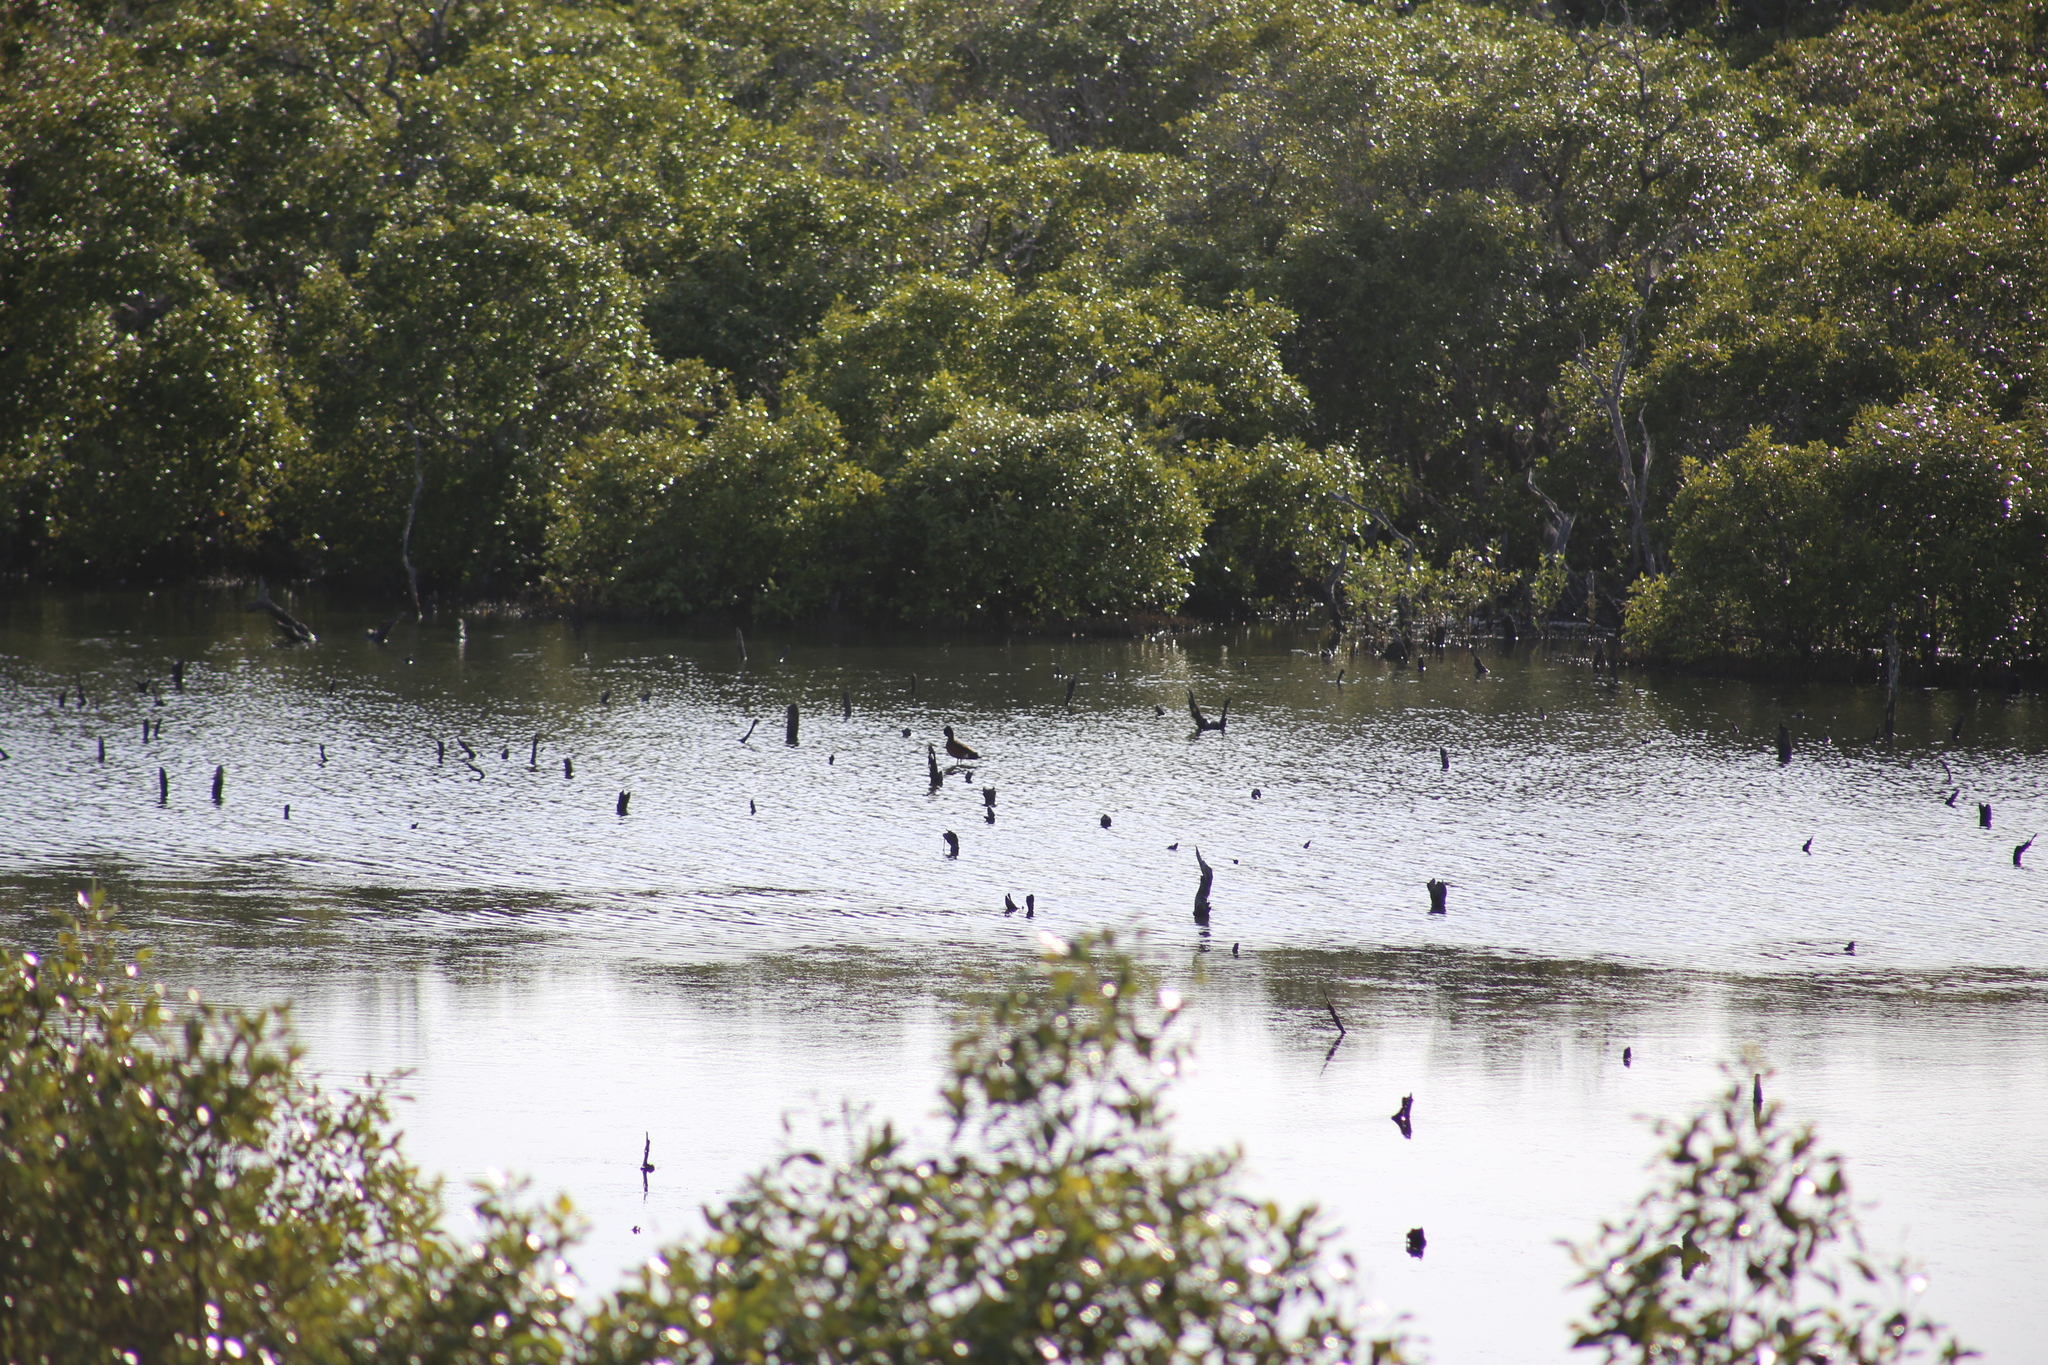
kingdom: Animalia
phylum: Chordata
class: Aves
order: Anseriformes
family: Anatidae
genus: Anas
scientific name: Anas castanea
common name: Chestnut teal
